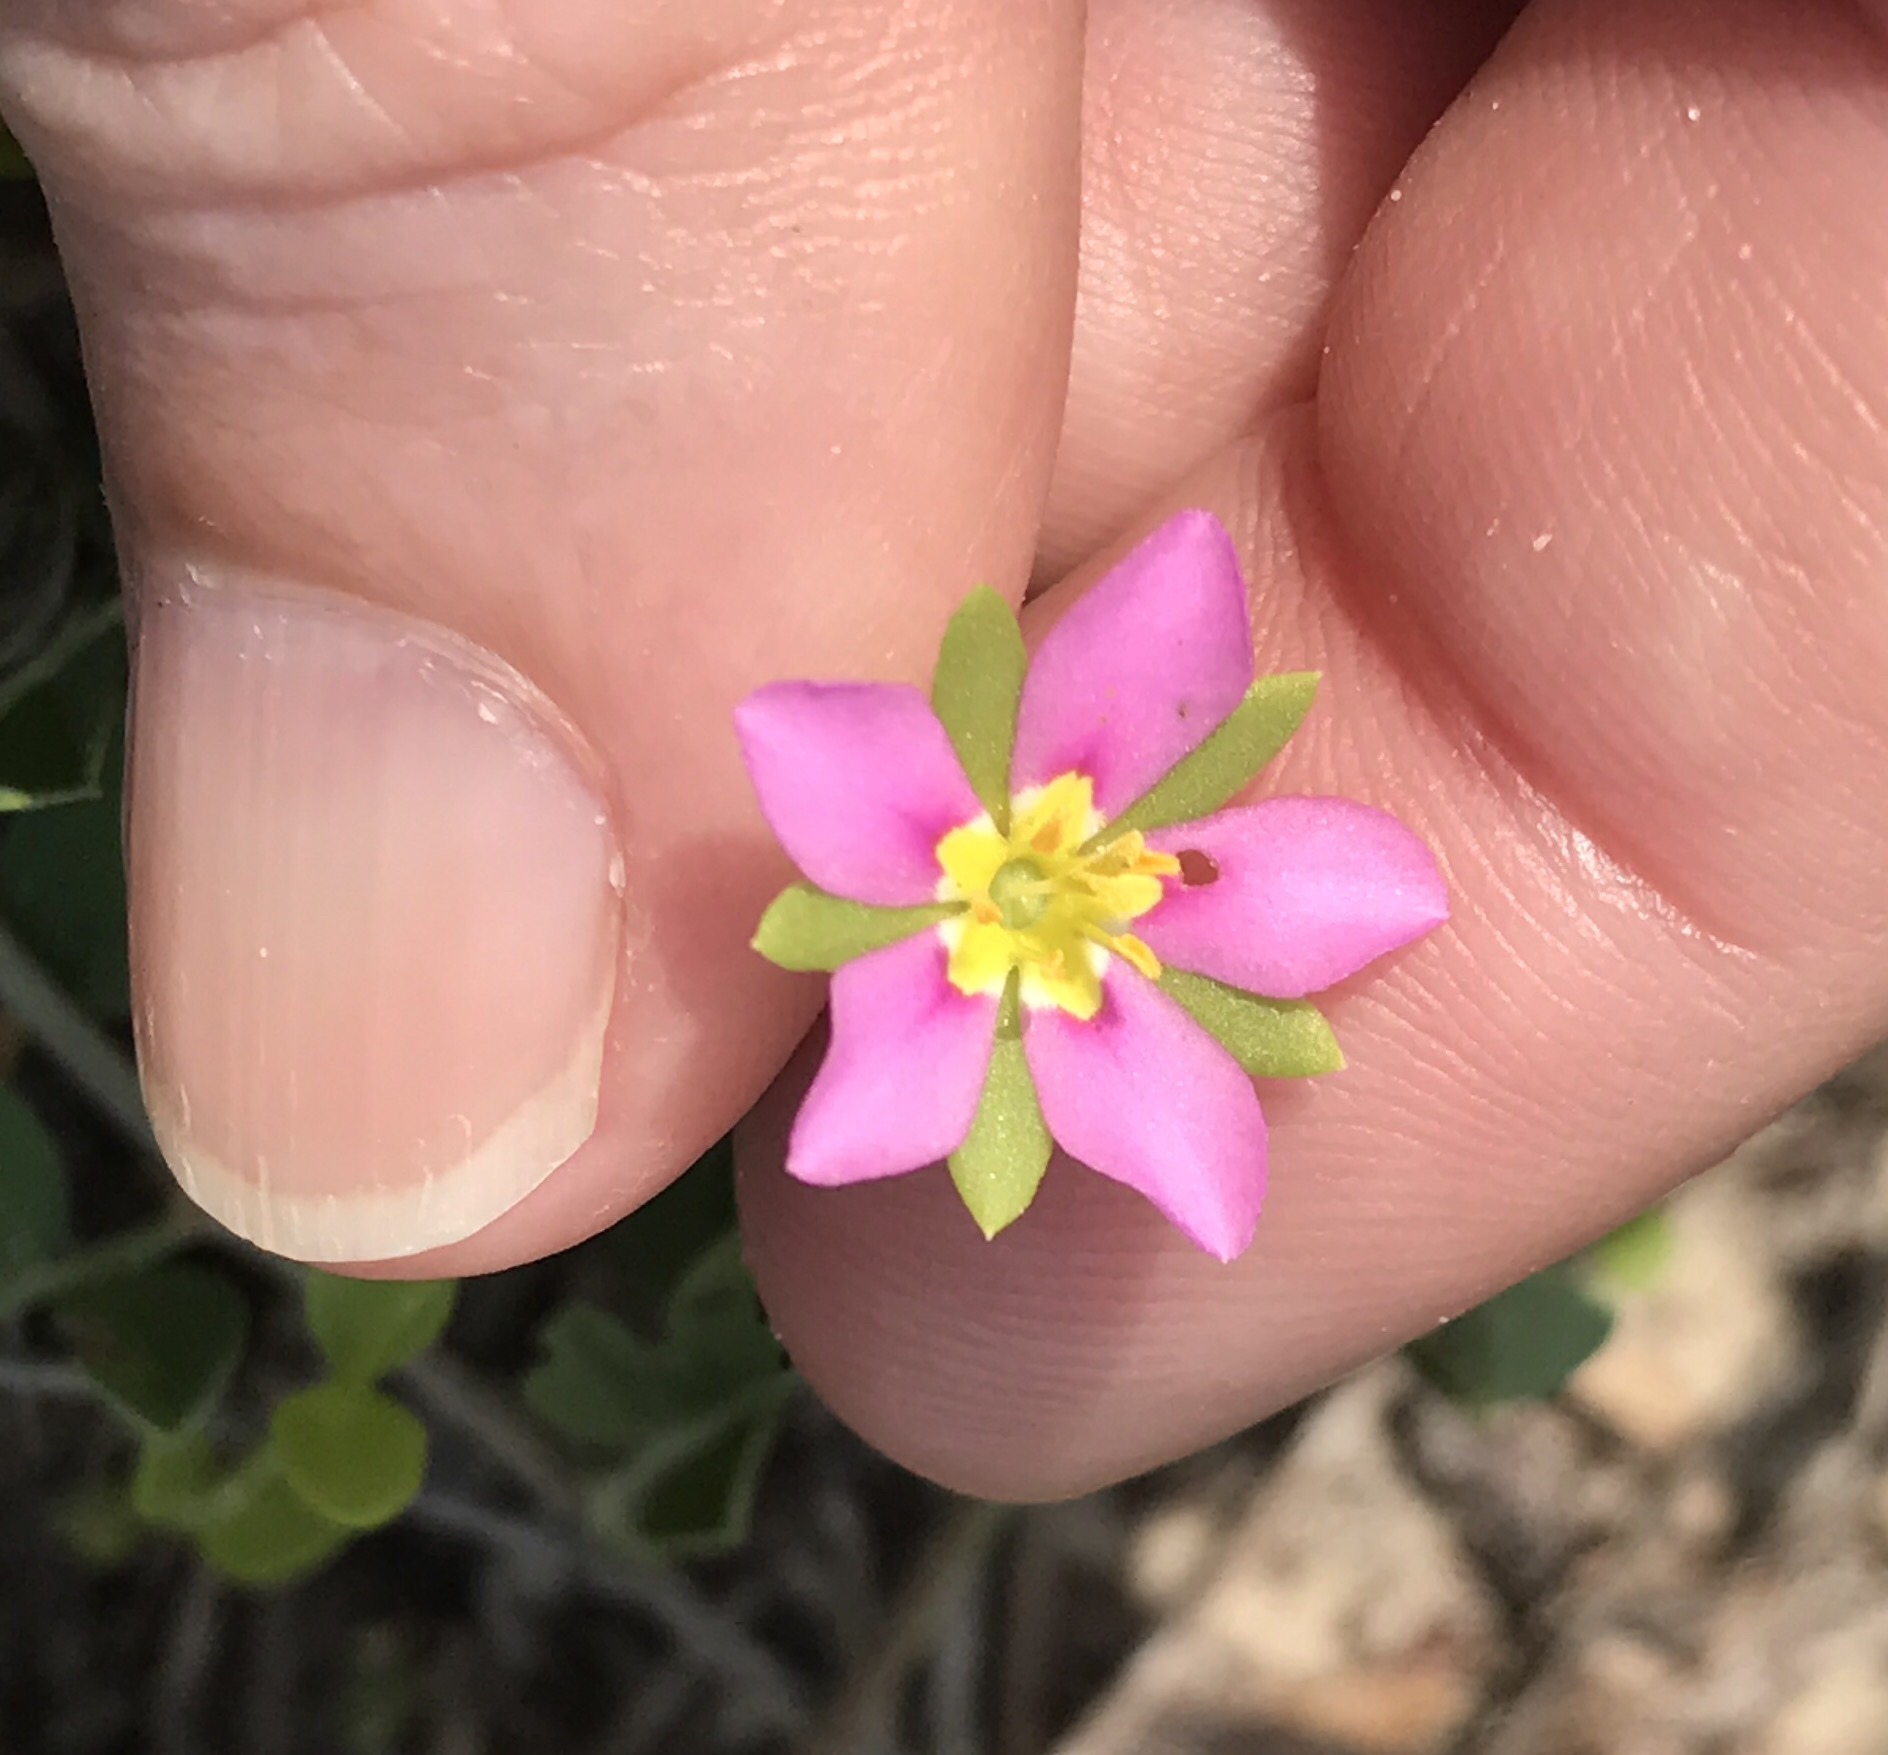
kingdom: Plantae
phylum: Tracheophyta
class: Magnoliopsida
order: Gentianales
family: Gentianaceae
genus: Sabatia
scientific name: Sabatia arenicola
